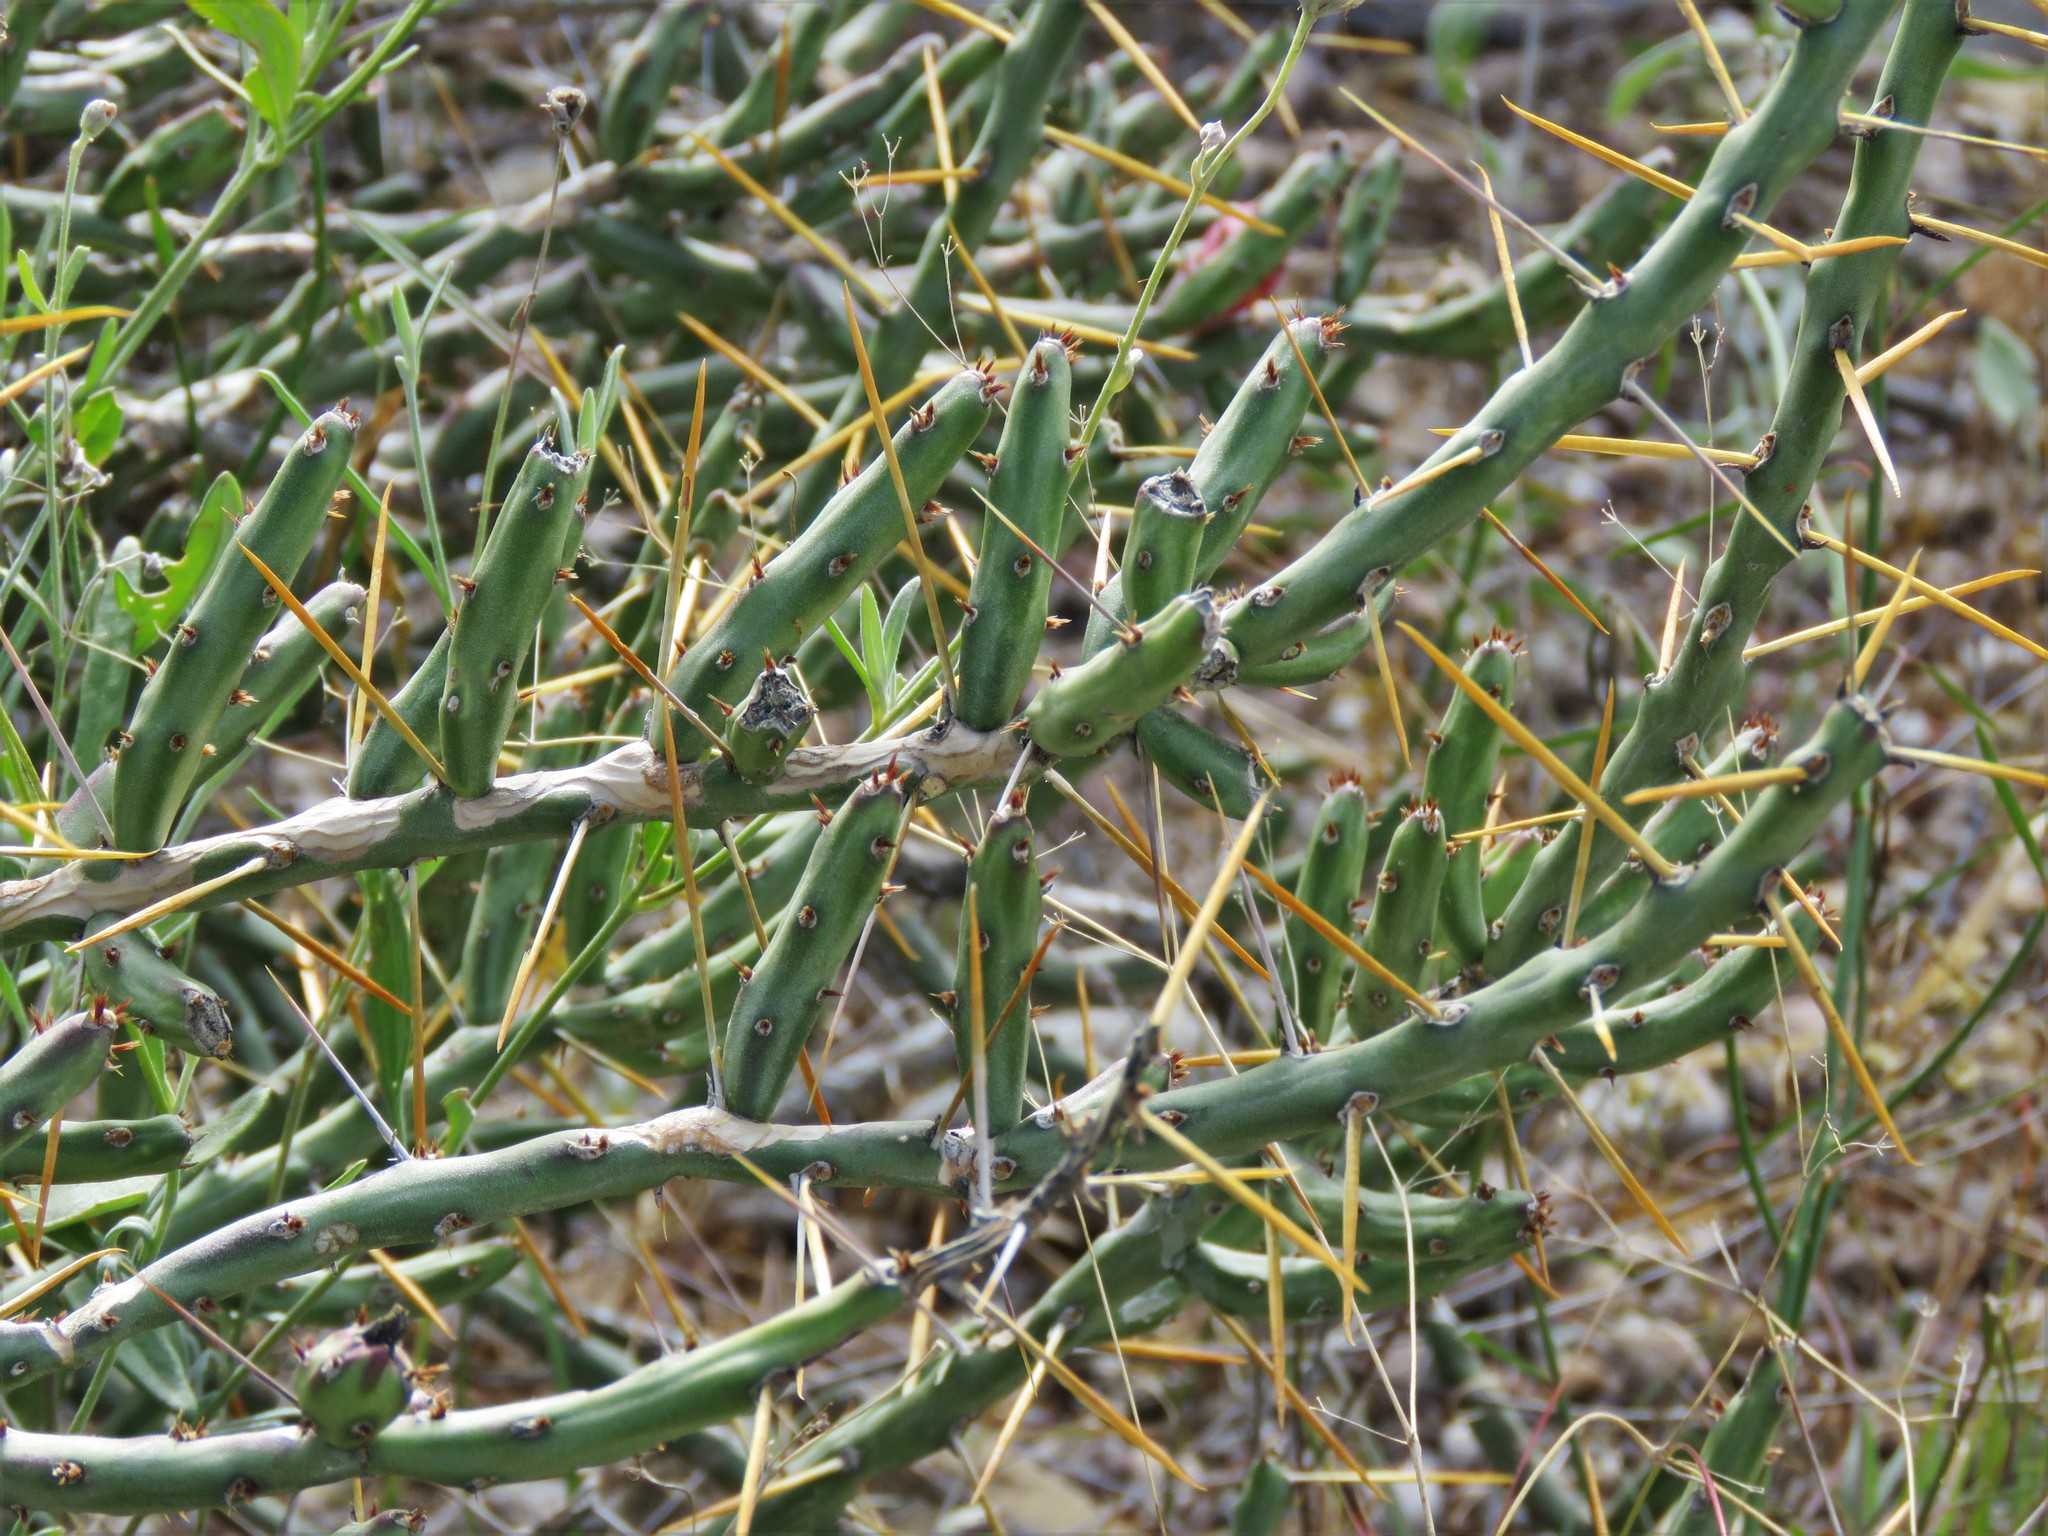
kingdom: Plantae
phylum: Tracheophyta
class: Magnoliopsida
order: Caryophyllales
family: Cactaceae
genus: Cylindropuntia
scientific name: Cylindropuntia leptocaulis
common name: Christmas cactus
